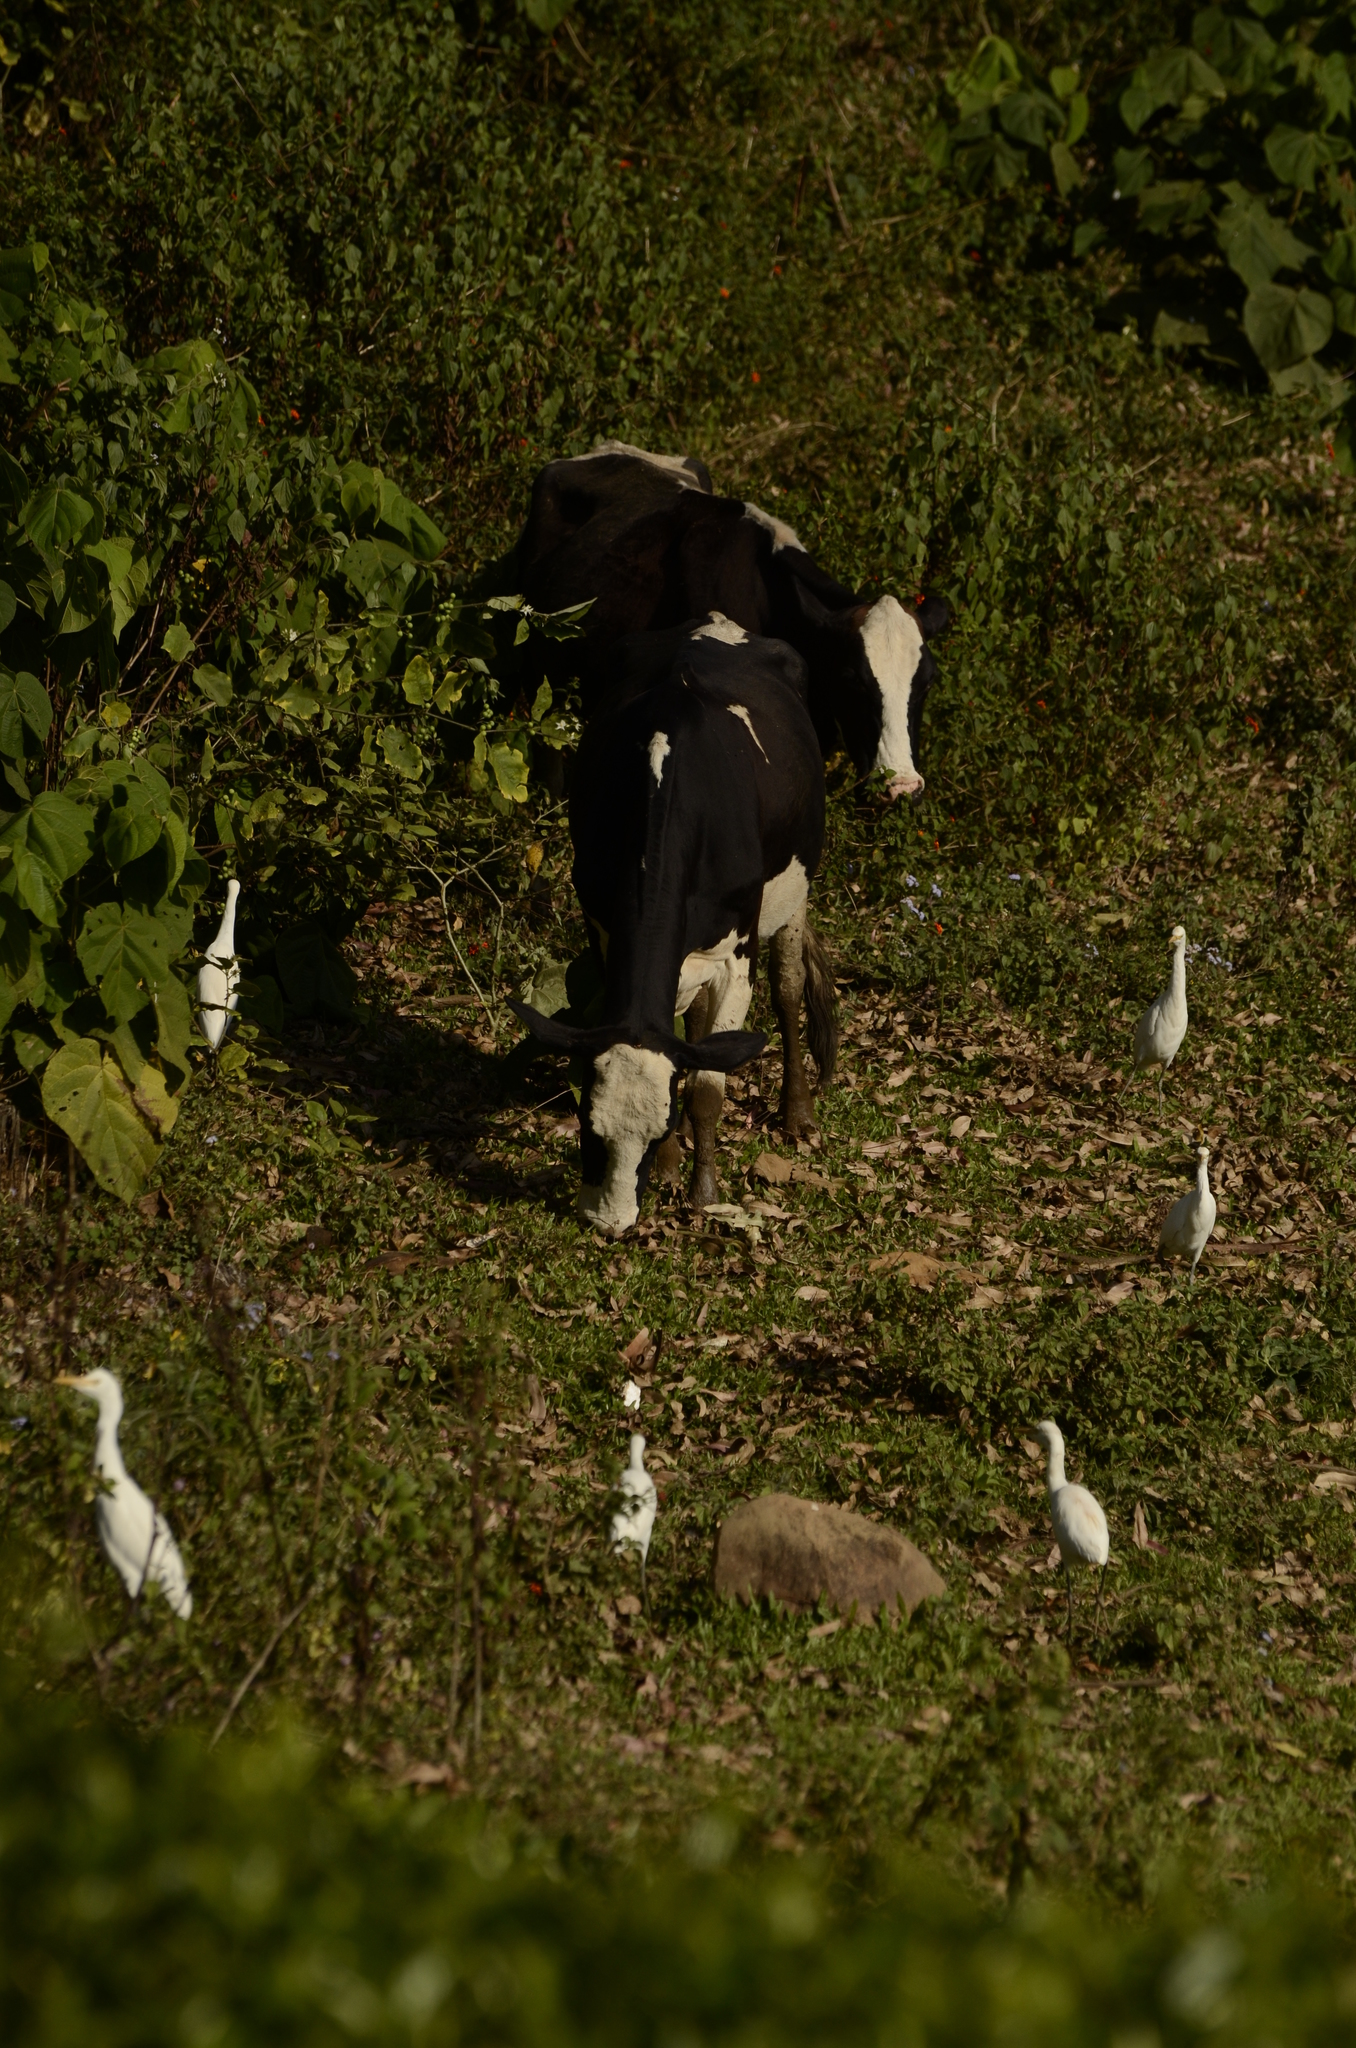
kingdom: Animalia
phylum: Chordata
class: Aves
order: Pelecaniformes
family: Ardeidae
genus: Bubulcus
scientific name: Bubulcus coromandus
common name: Eastern cattle egret
